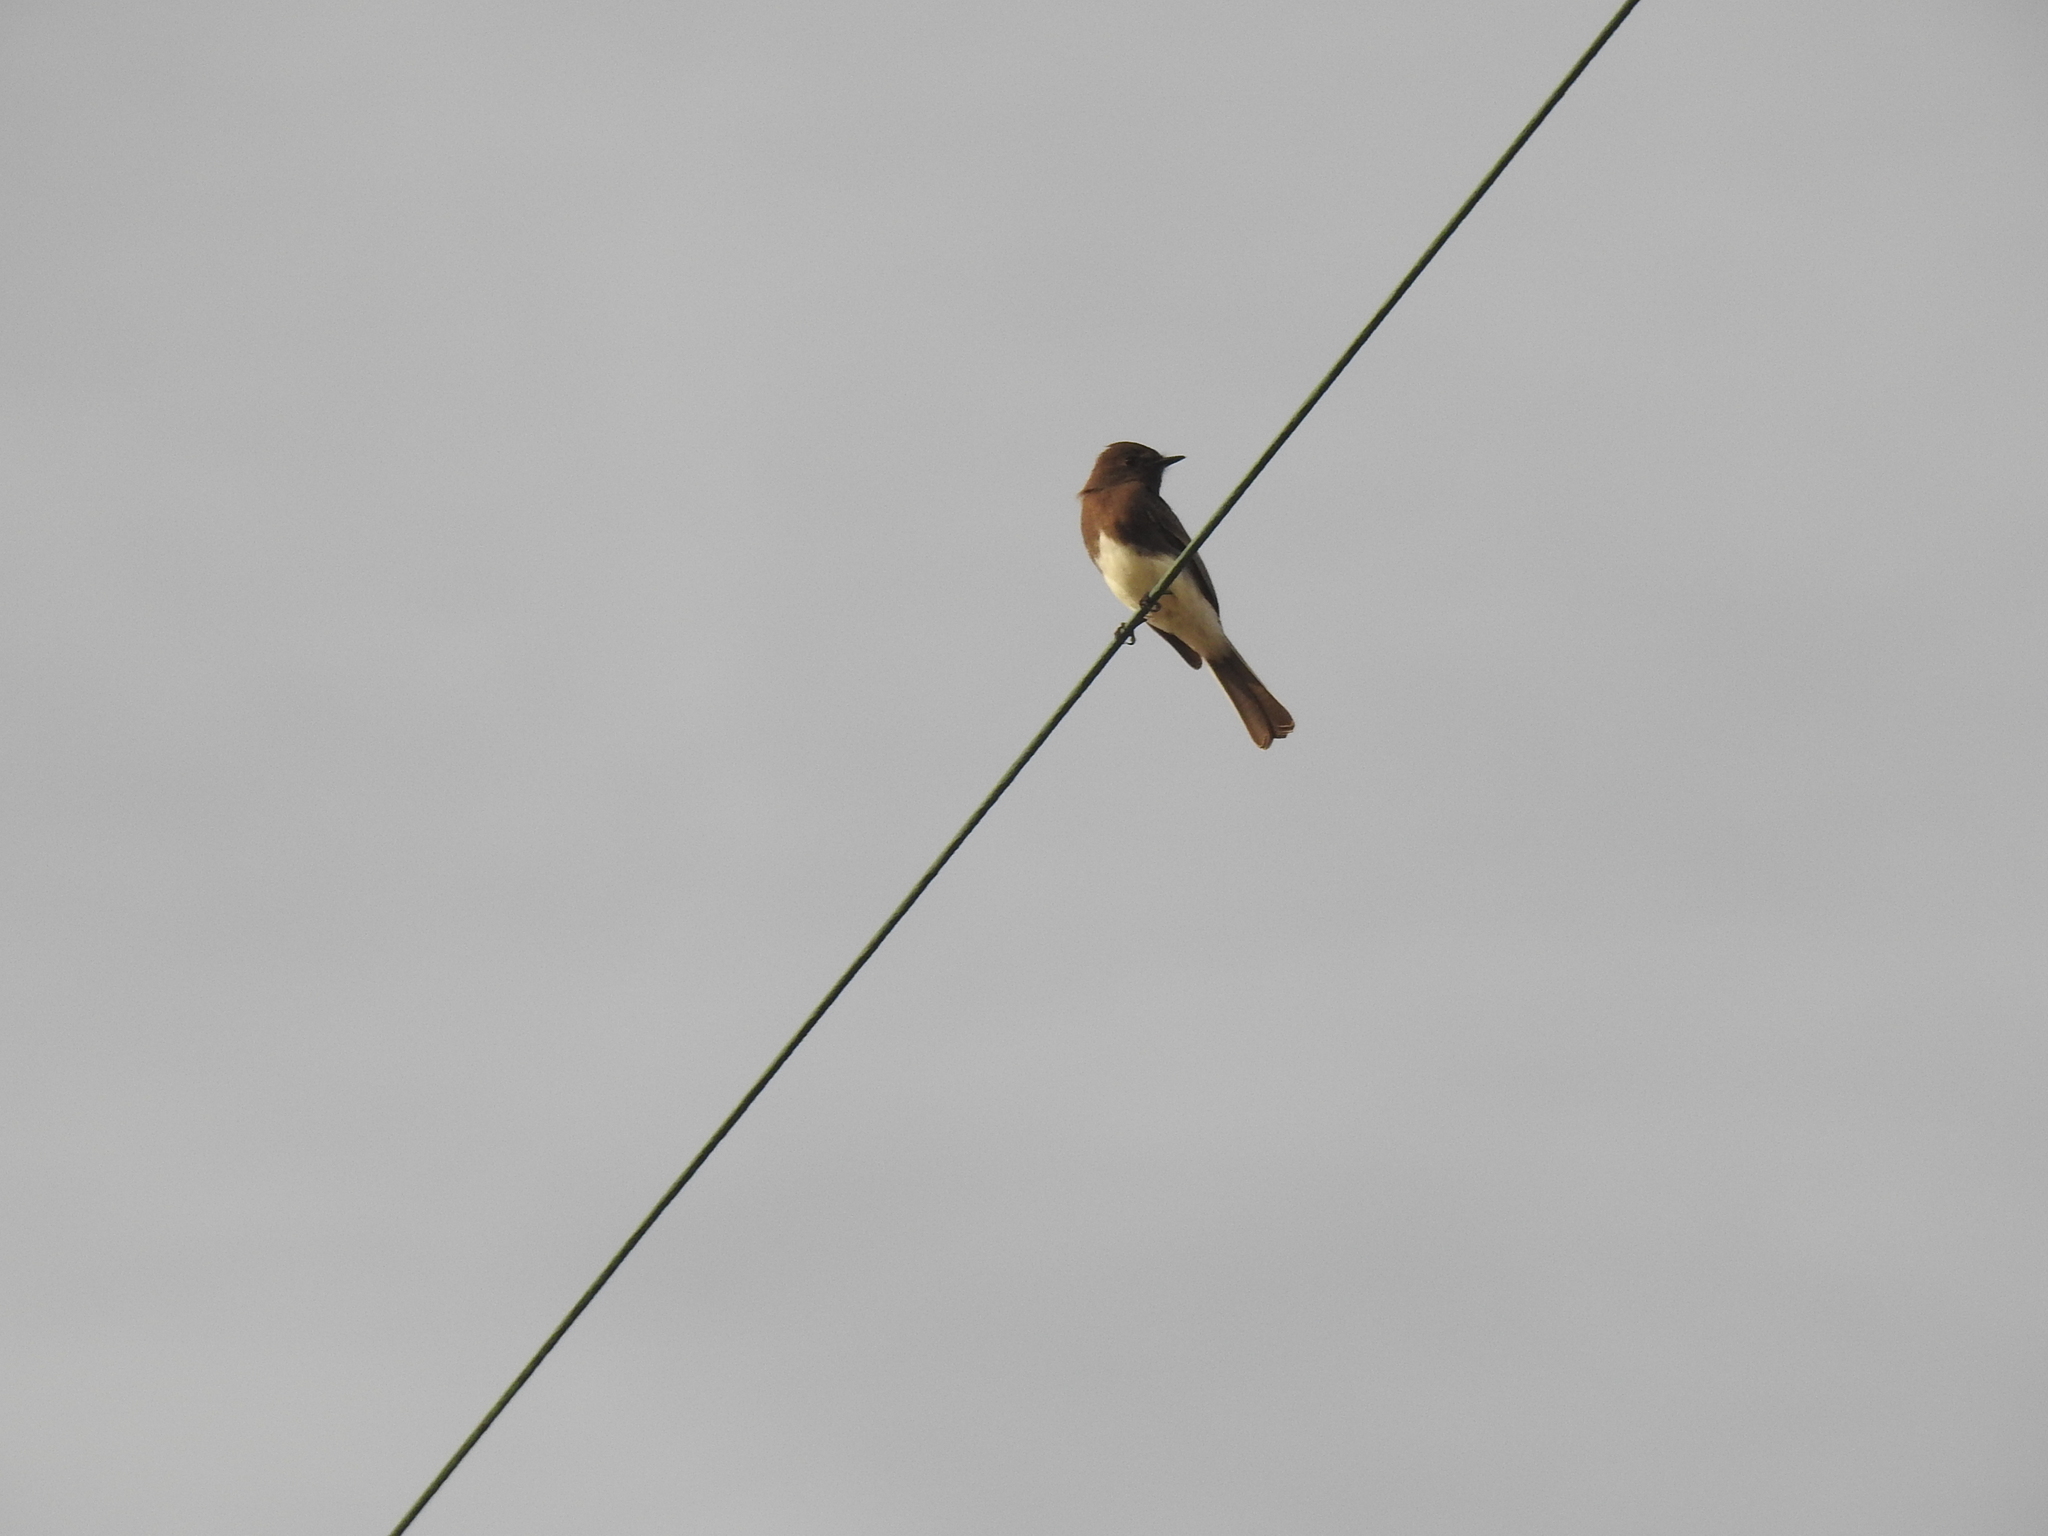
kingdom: Animalia
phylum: Chordata
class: Aves
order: Passeriformes
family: Tyrannidae
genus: Sayornis
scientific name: Sayornis nigricans
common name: Black phoebe
